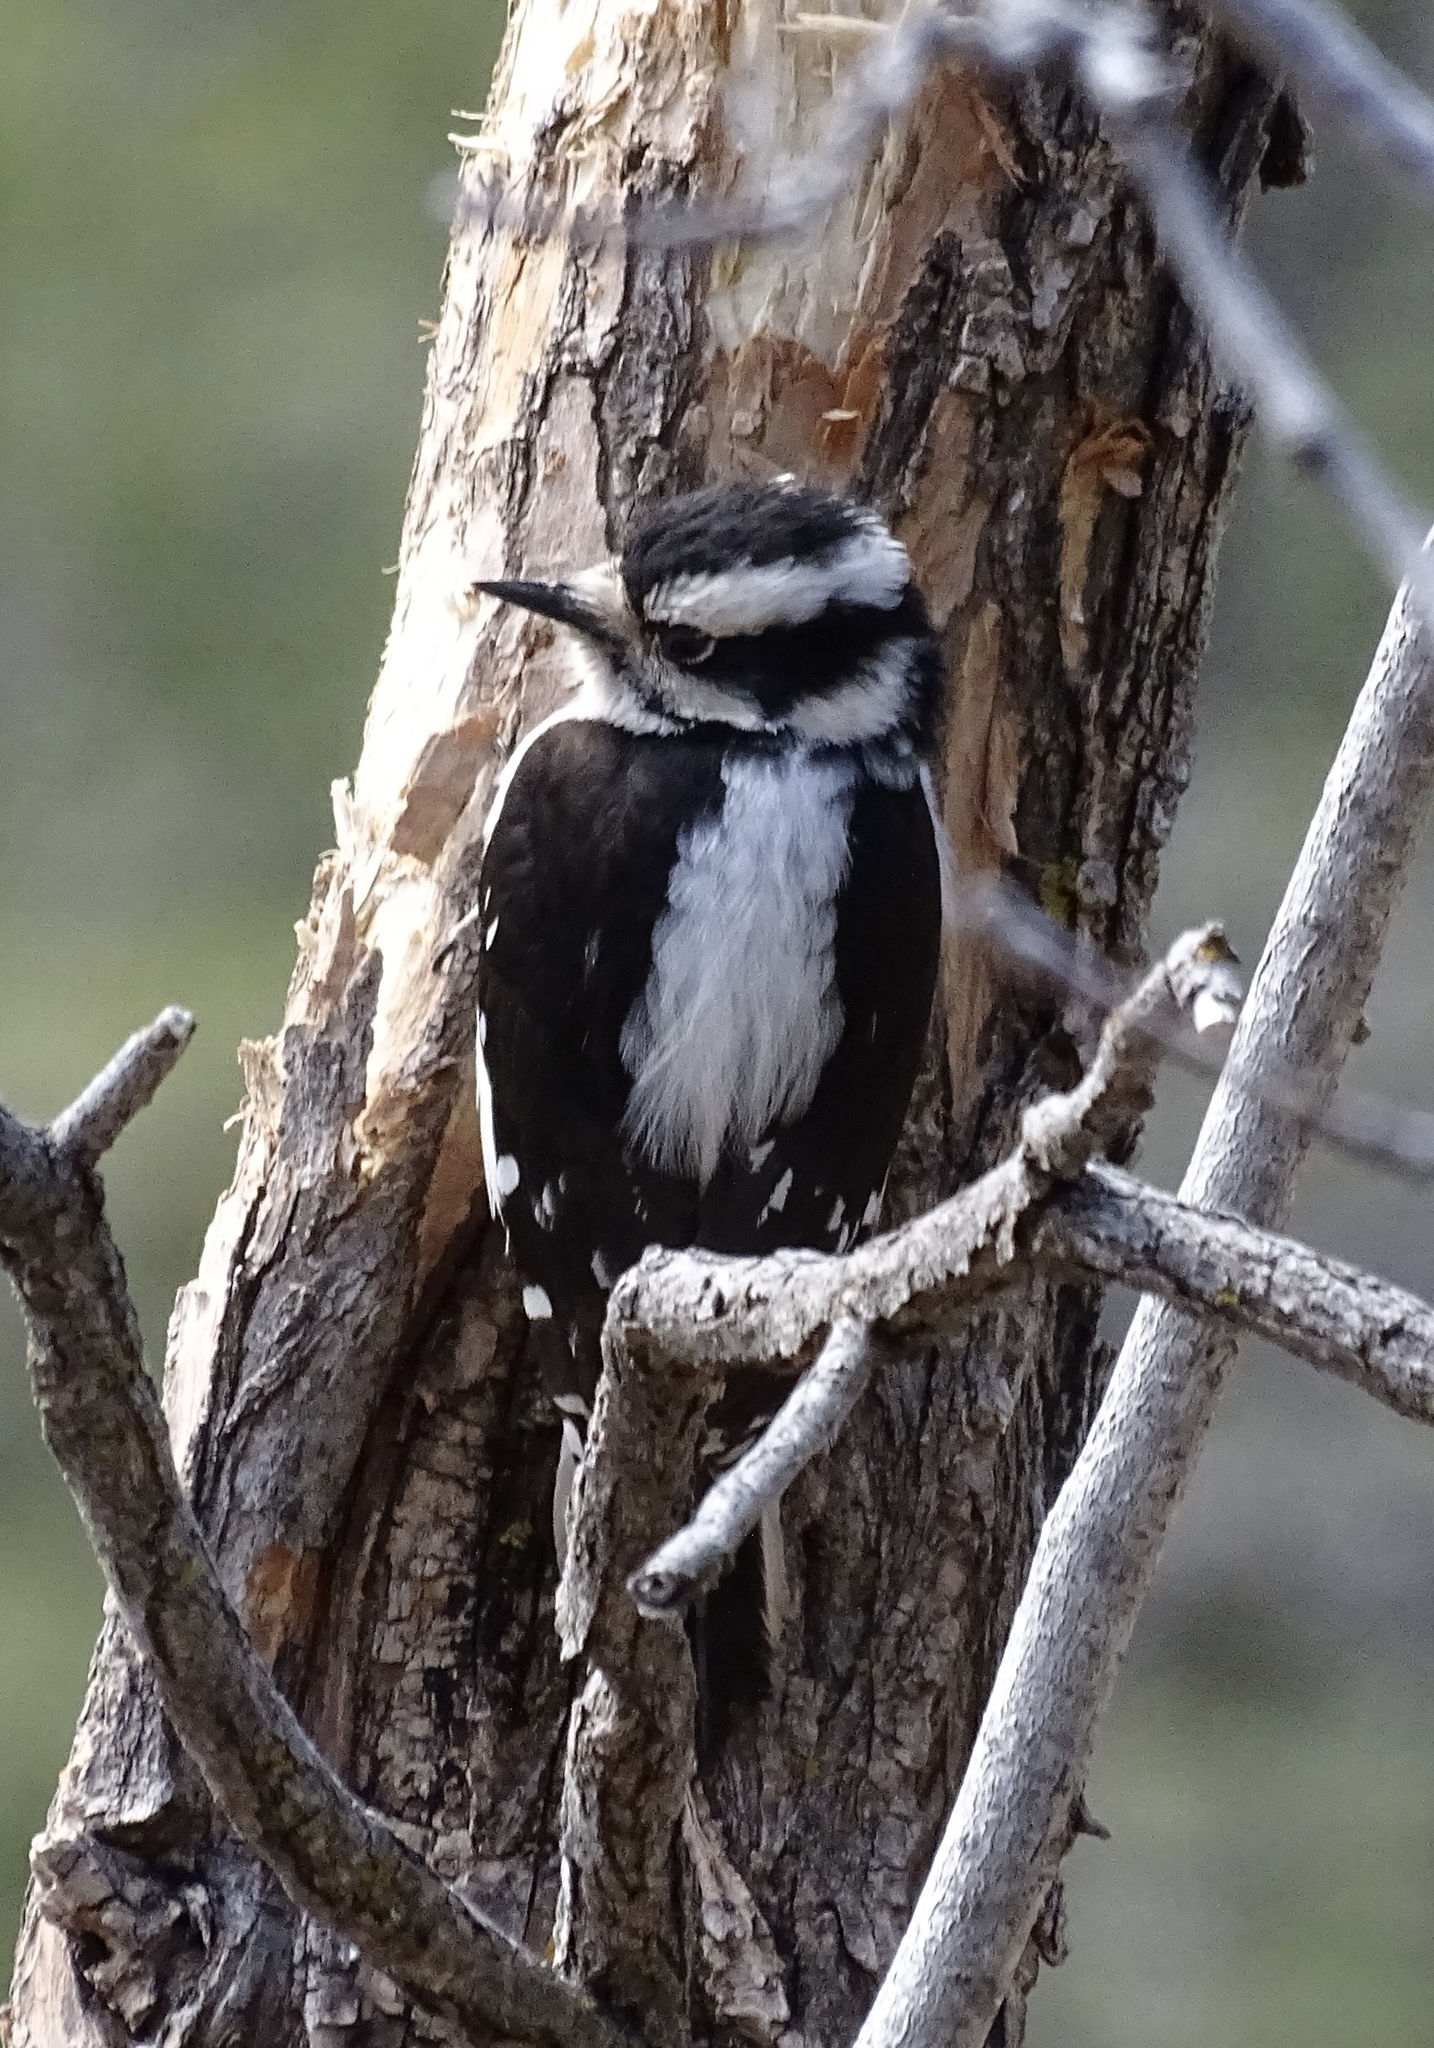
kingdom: Animalia
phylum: Chordata
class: Aves
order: Piciformes
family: Picidae
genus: Dryobates
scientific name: Dryobates pubescens
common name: Downy woodpecker
